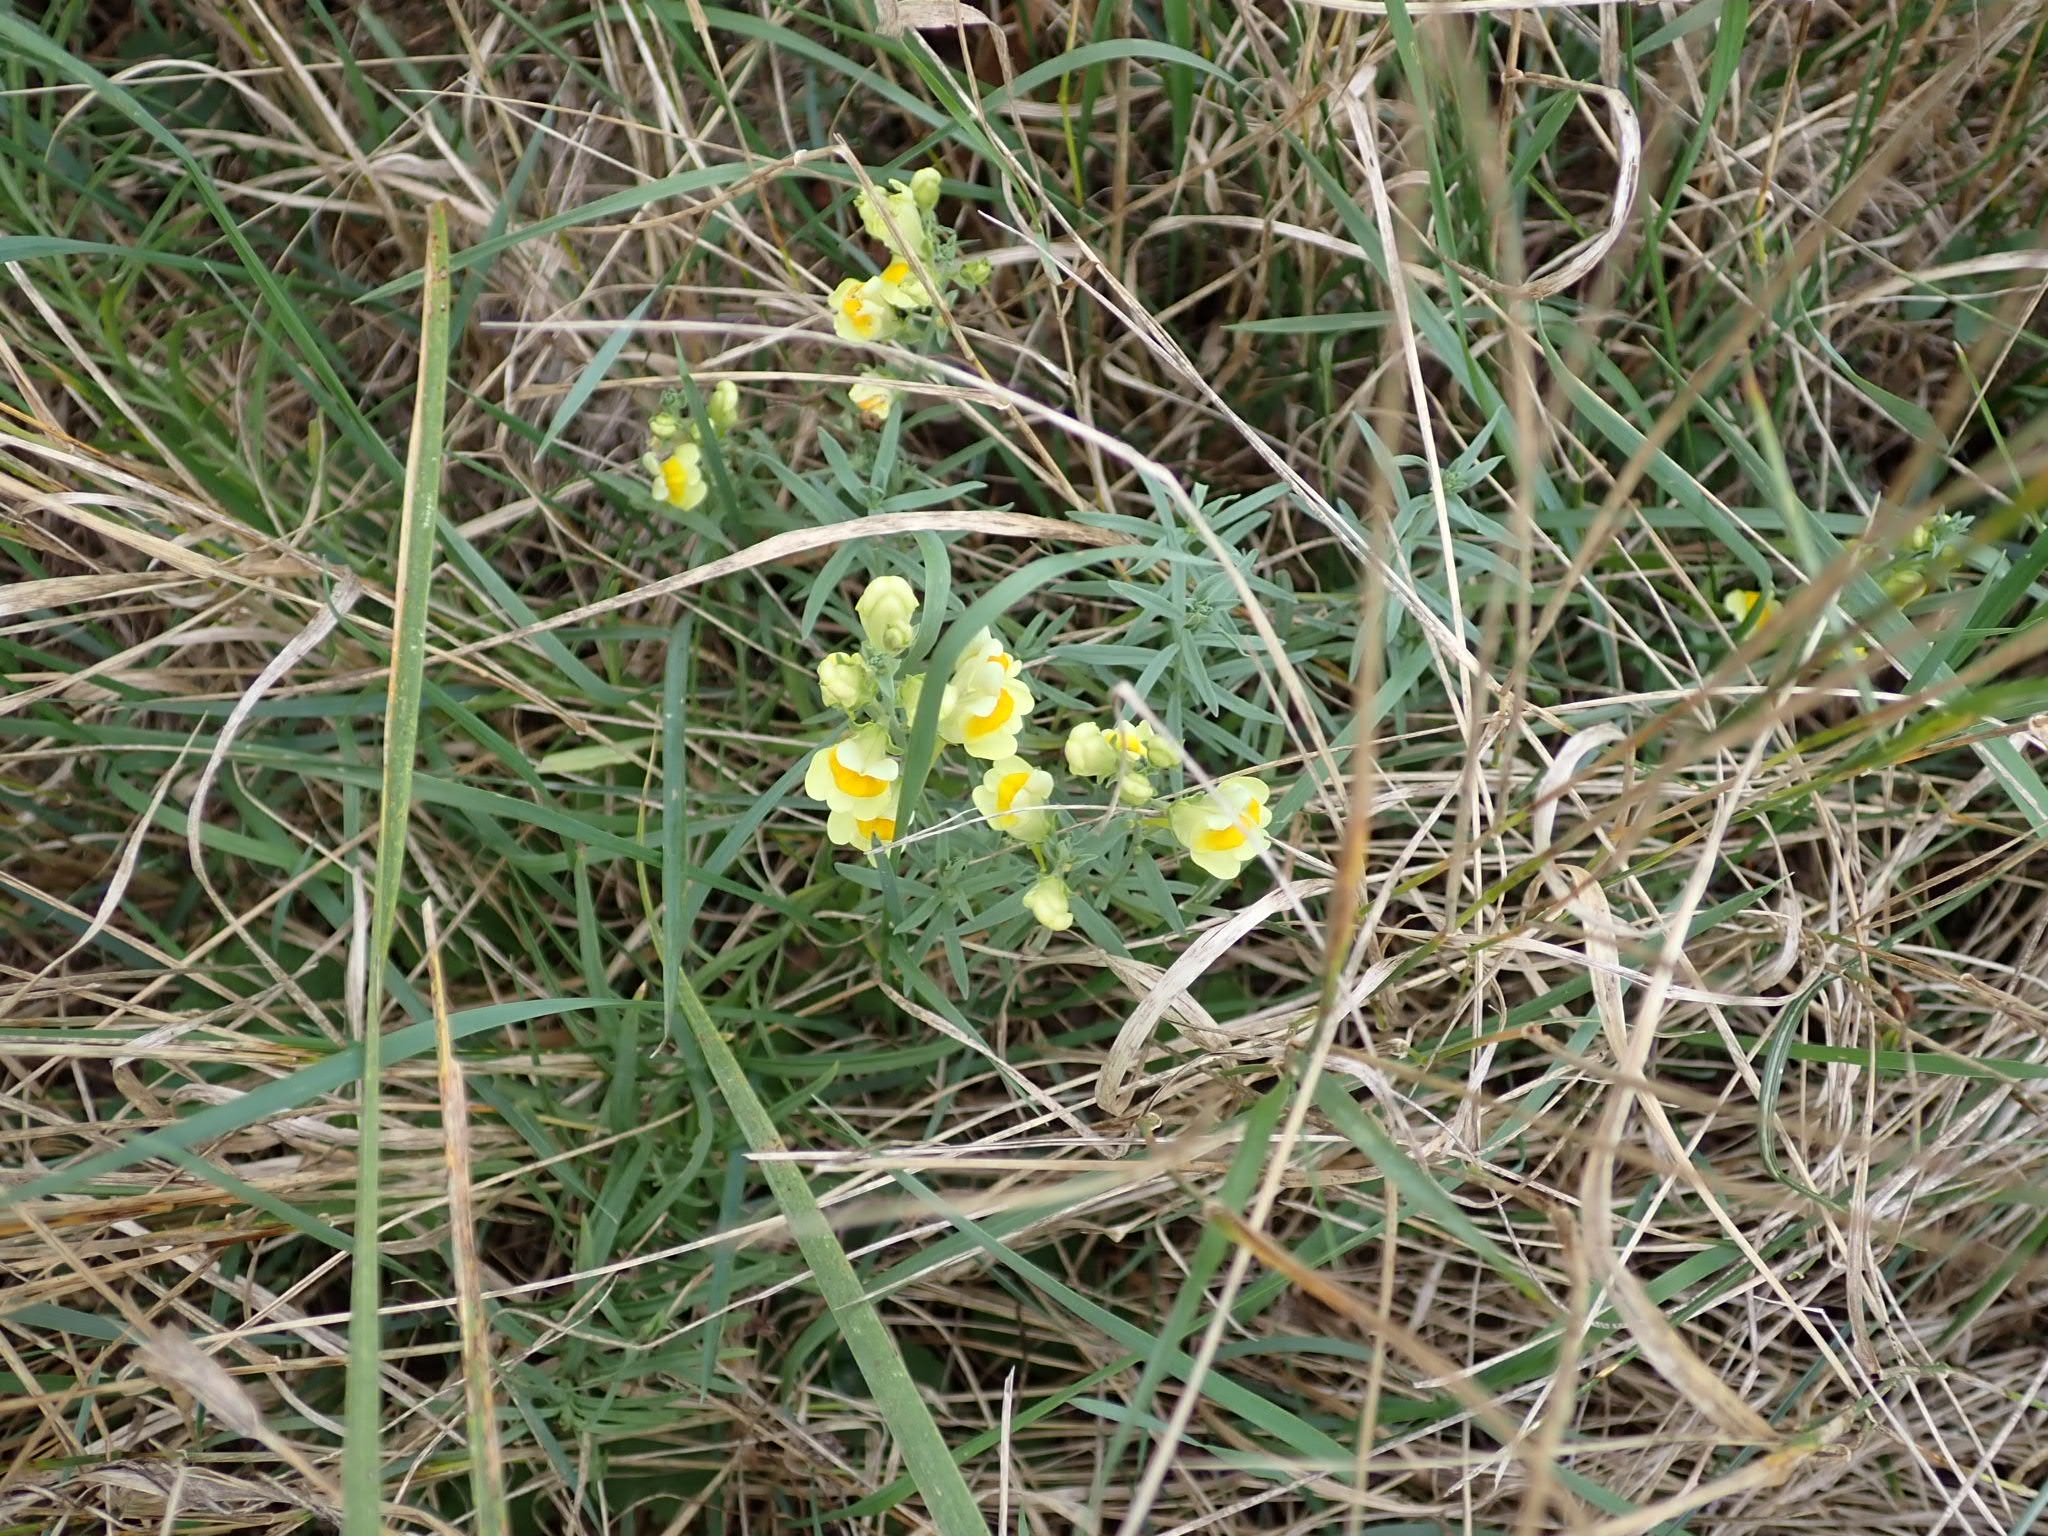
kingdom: Plantae
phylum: Tracheophyta
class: Magnoliopsida
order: Lamiales
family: Plantaginaceae
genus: Linaria
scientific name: Linaria vulgaris
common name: Butter and eggs
